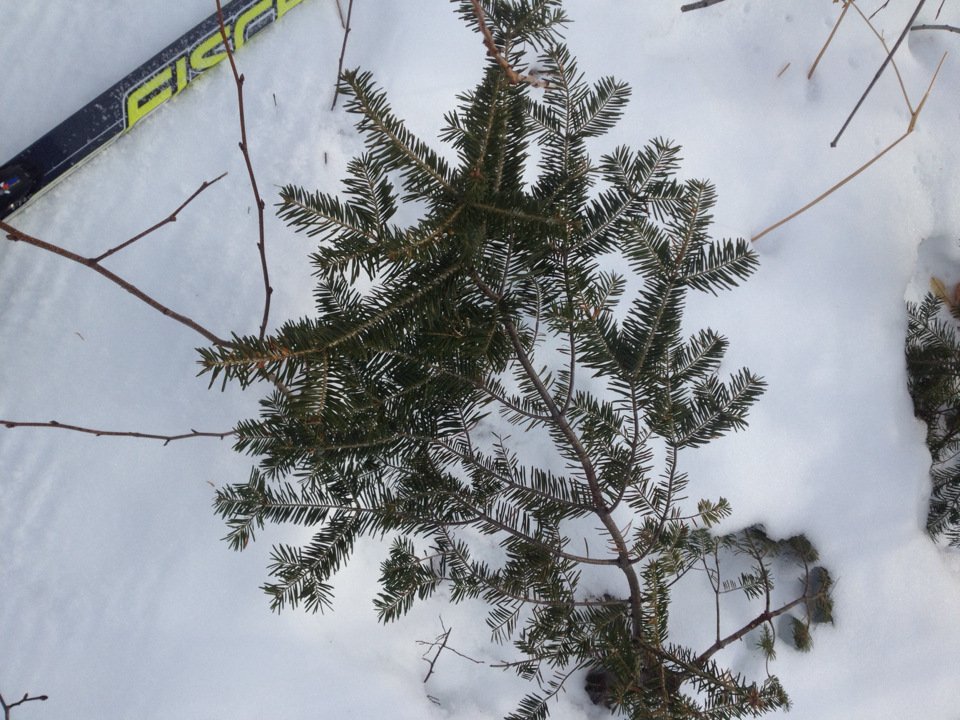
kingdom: Plantae
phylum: Tracheophyta
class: Pinopsida
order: Pinales
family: Pinaceae
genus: Abies
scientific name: Abies balsamea
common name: Balsam fir
